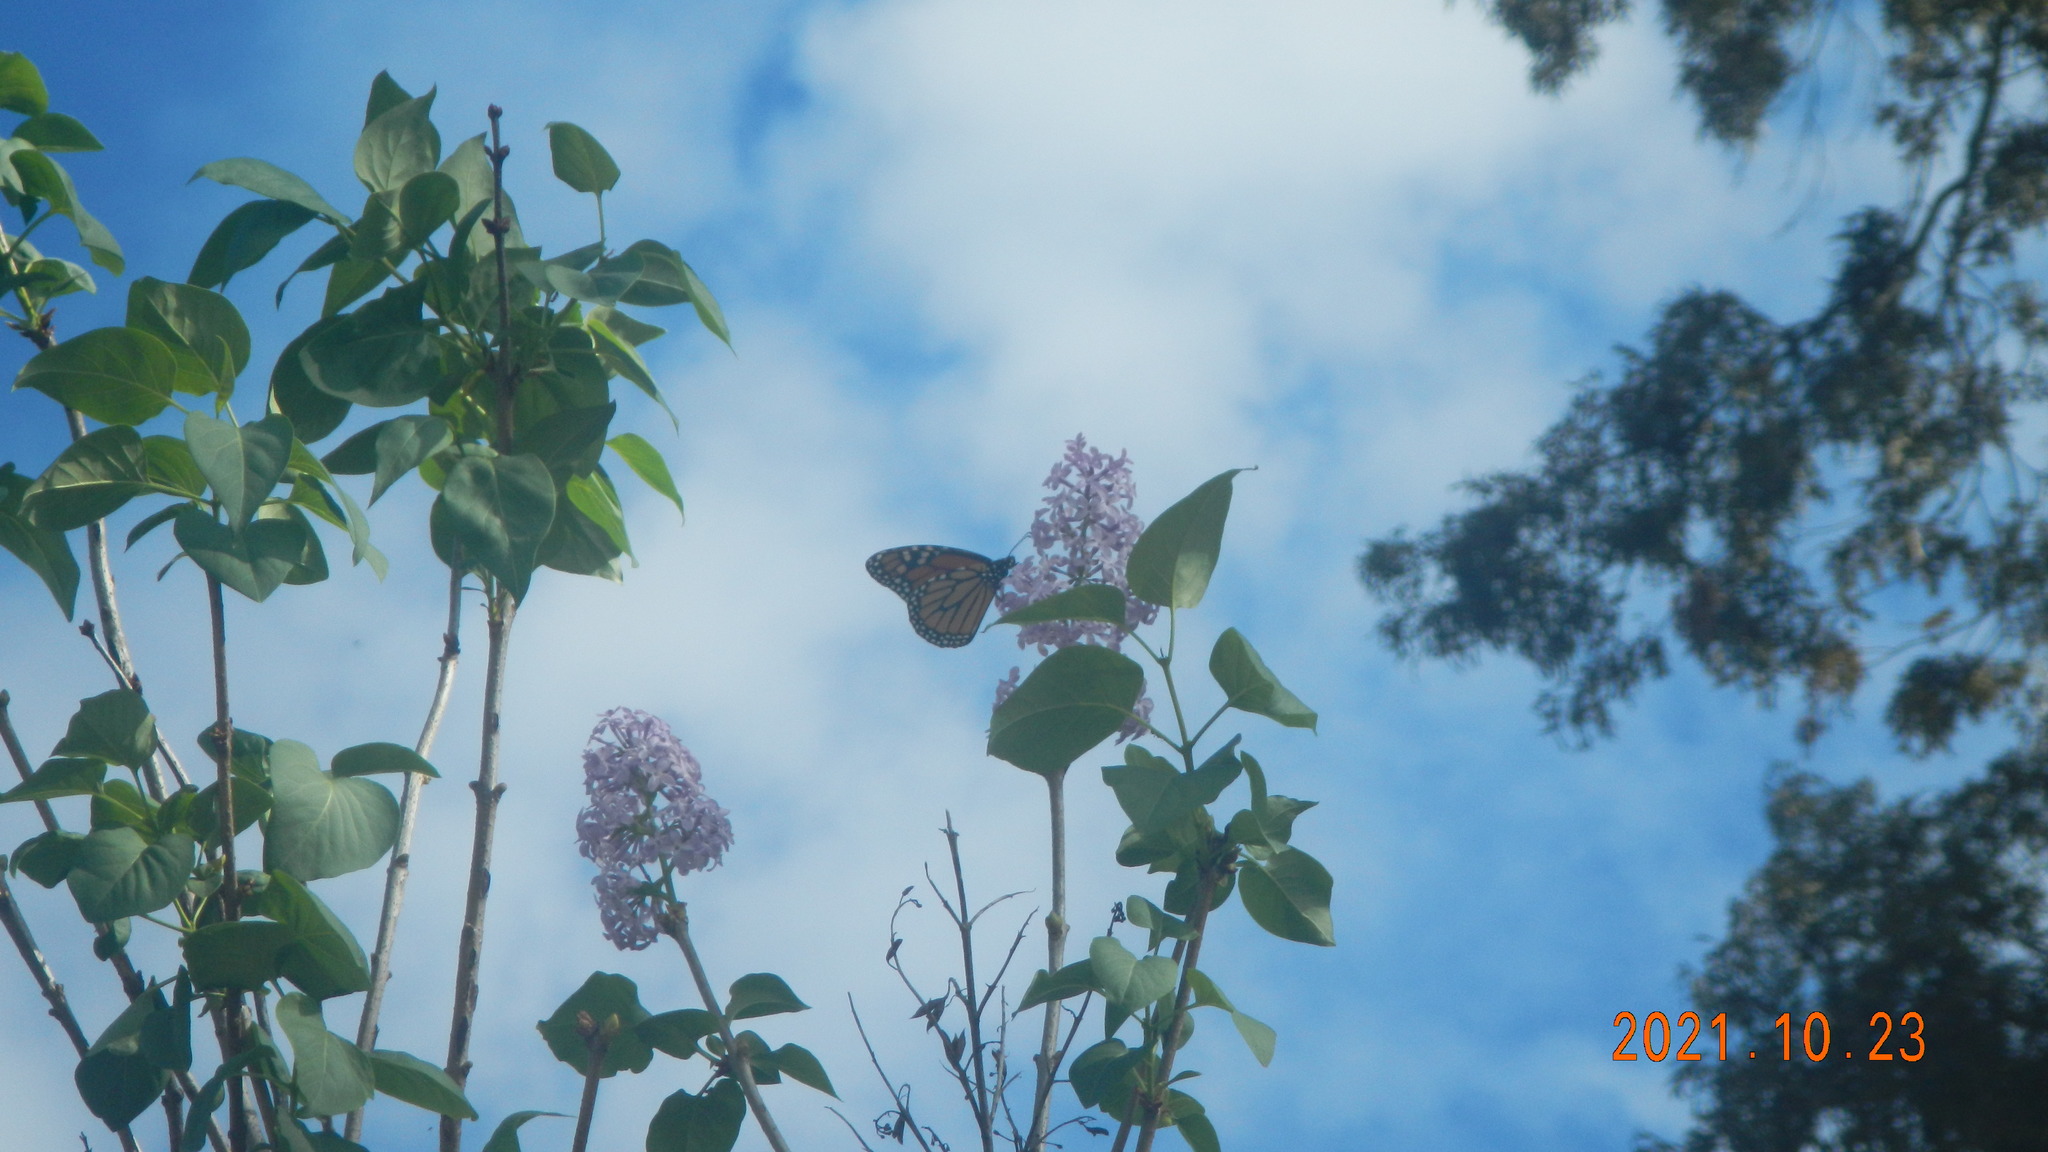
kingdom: Animalia
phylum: Arthropoda
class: Insecta
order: Lepidoptera
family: Nymphalidae
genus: Danaus
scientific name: Danaus plexippus
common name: Monarch
